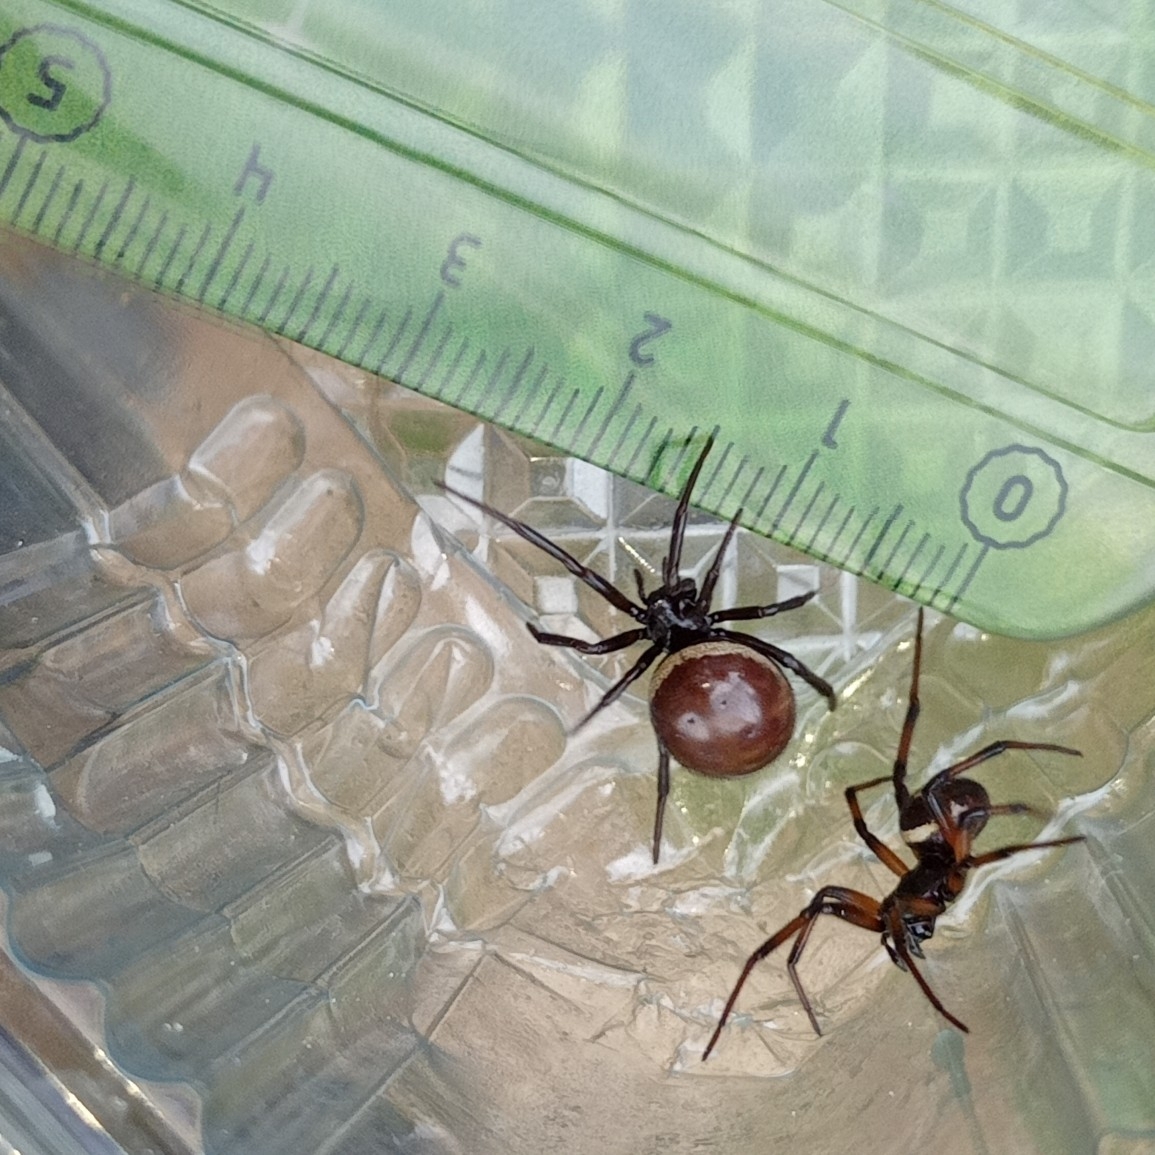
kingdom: Animalia
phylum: Arthropoda
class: Arachnida
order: Araneae
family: Theridiidae
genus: Steatoda
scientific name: Steatoda paykulliana
